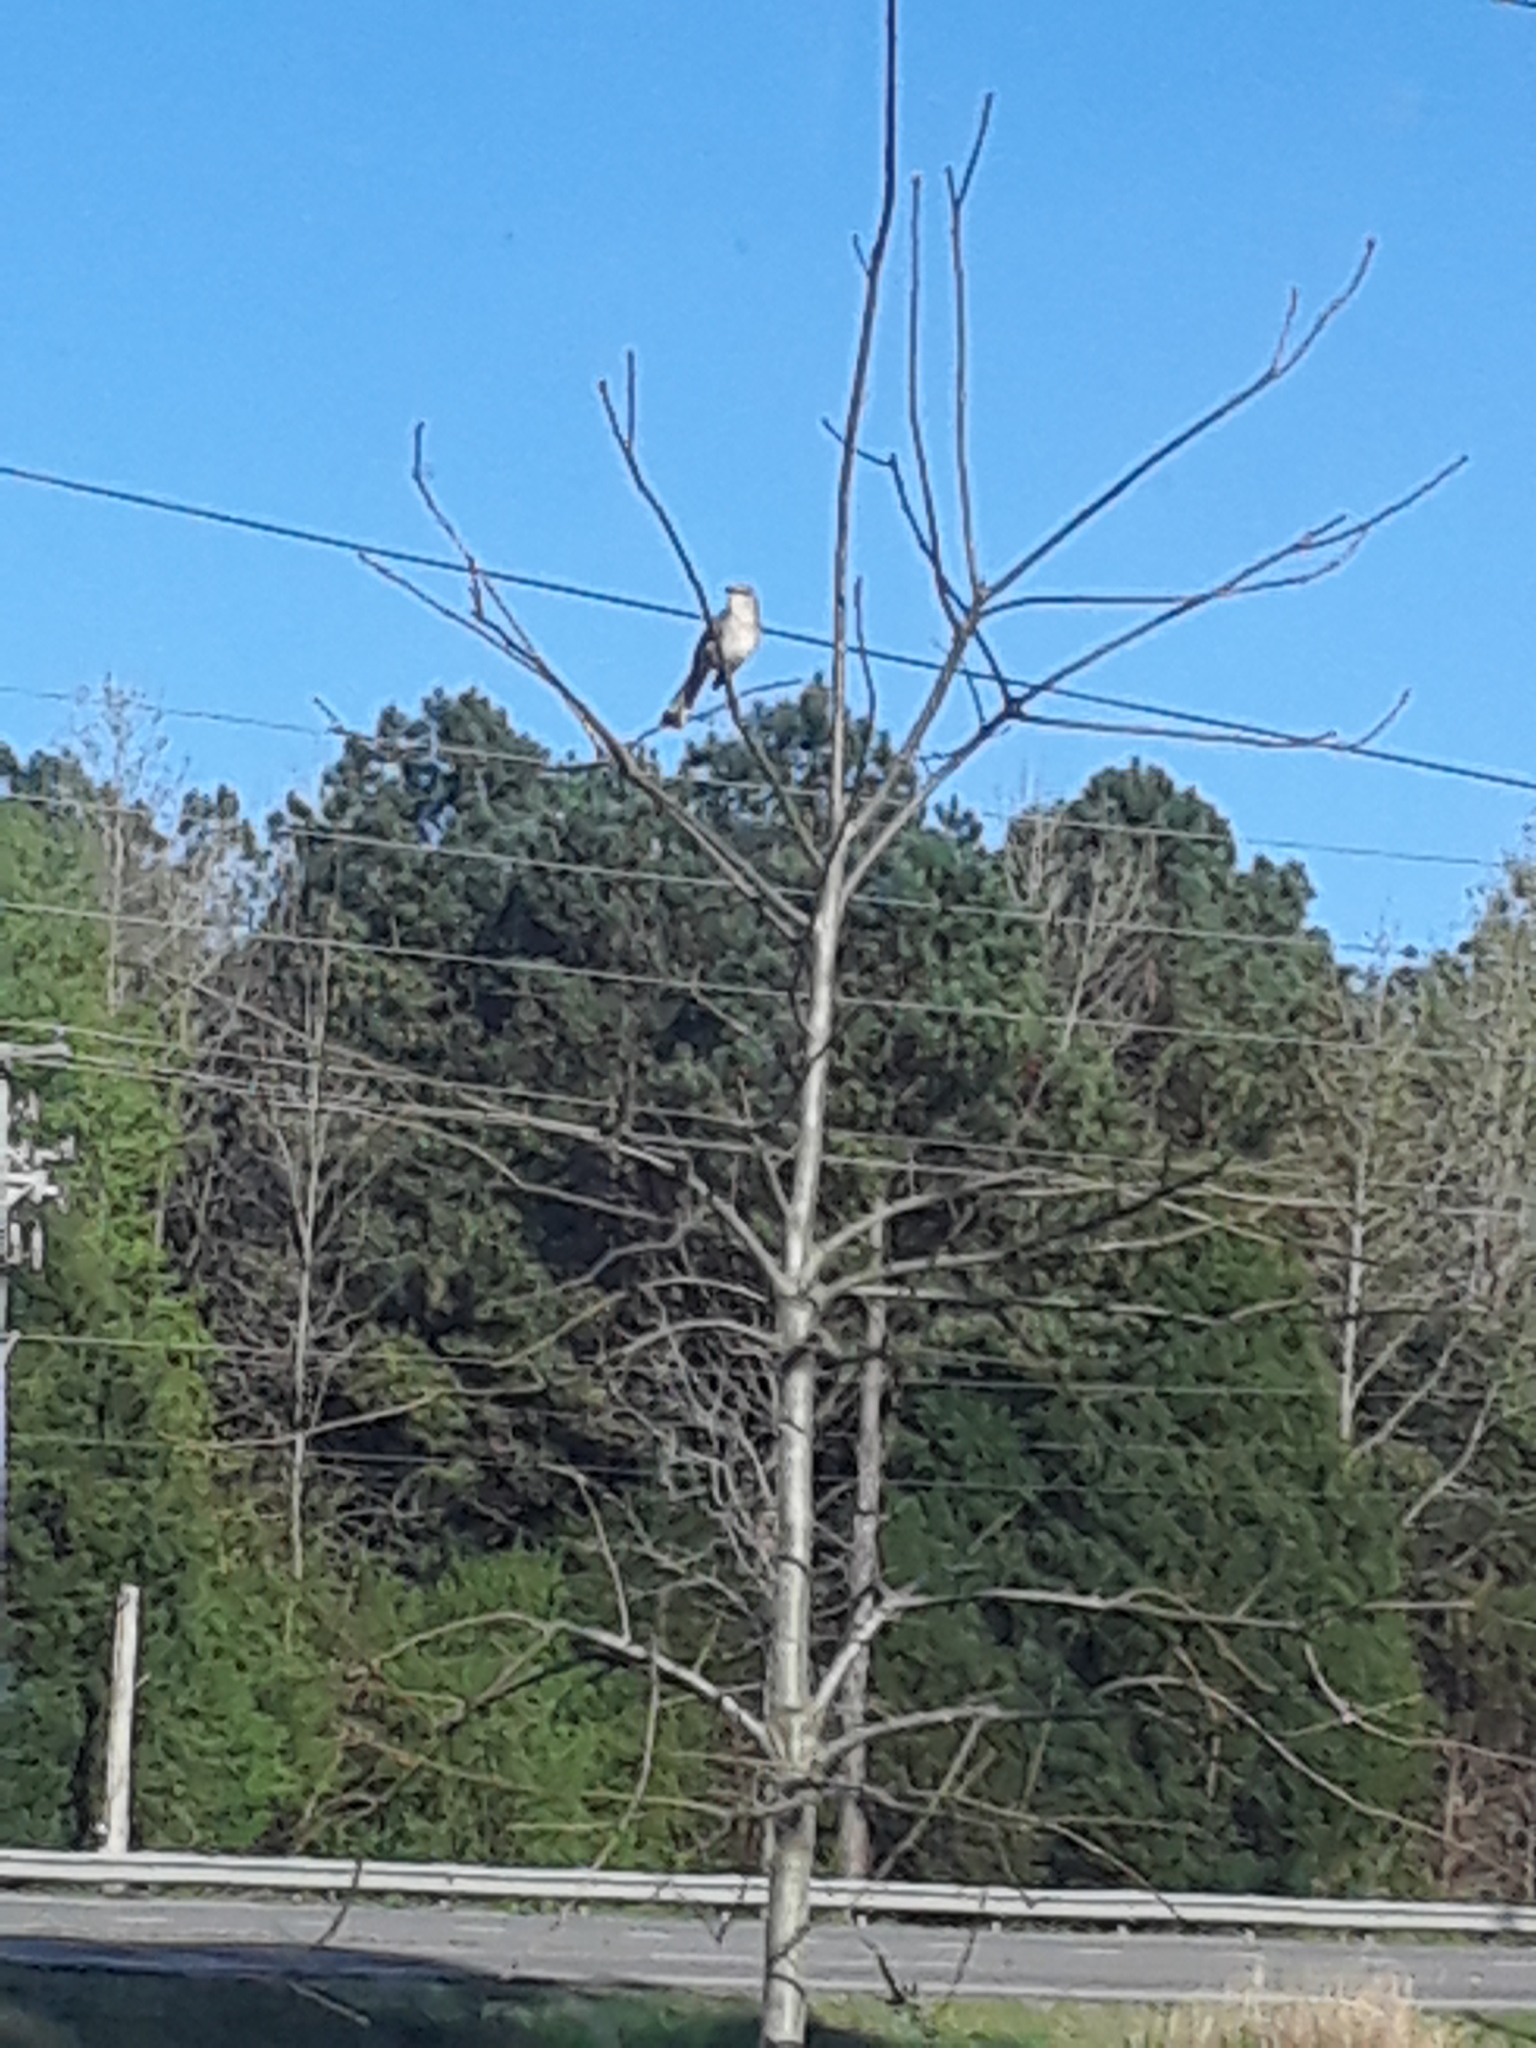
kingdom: Animalia
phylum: Chordata
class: Aves
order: Passeriformes
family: Mimidae
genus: Mimus
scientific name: Mimus polyglottos
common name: Northern mockingbird
